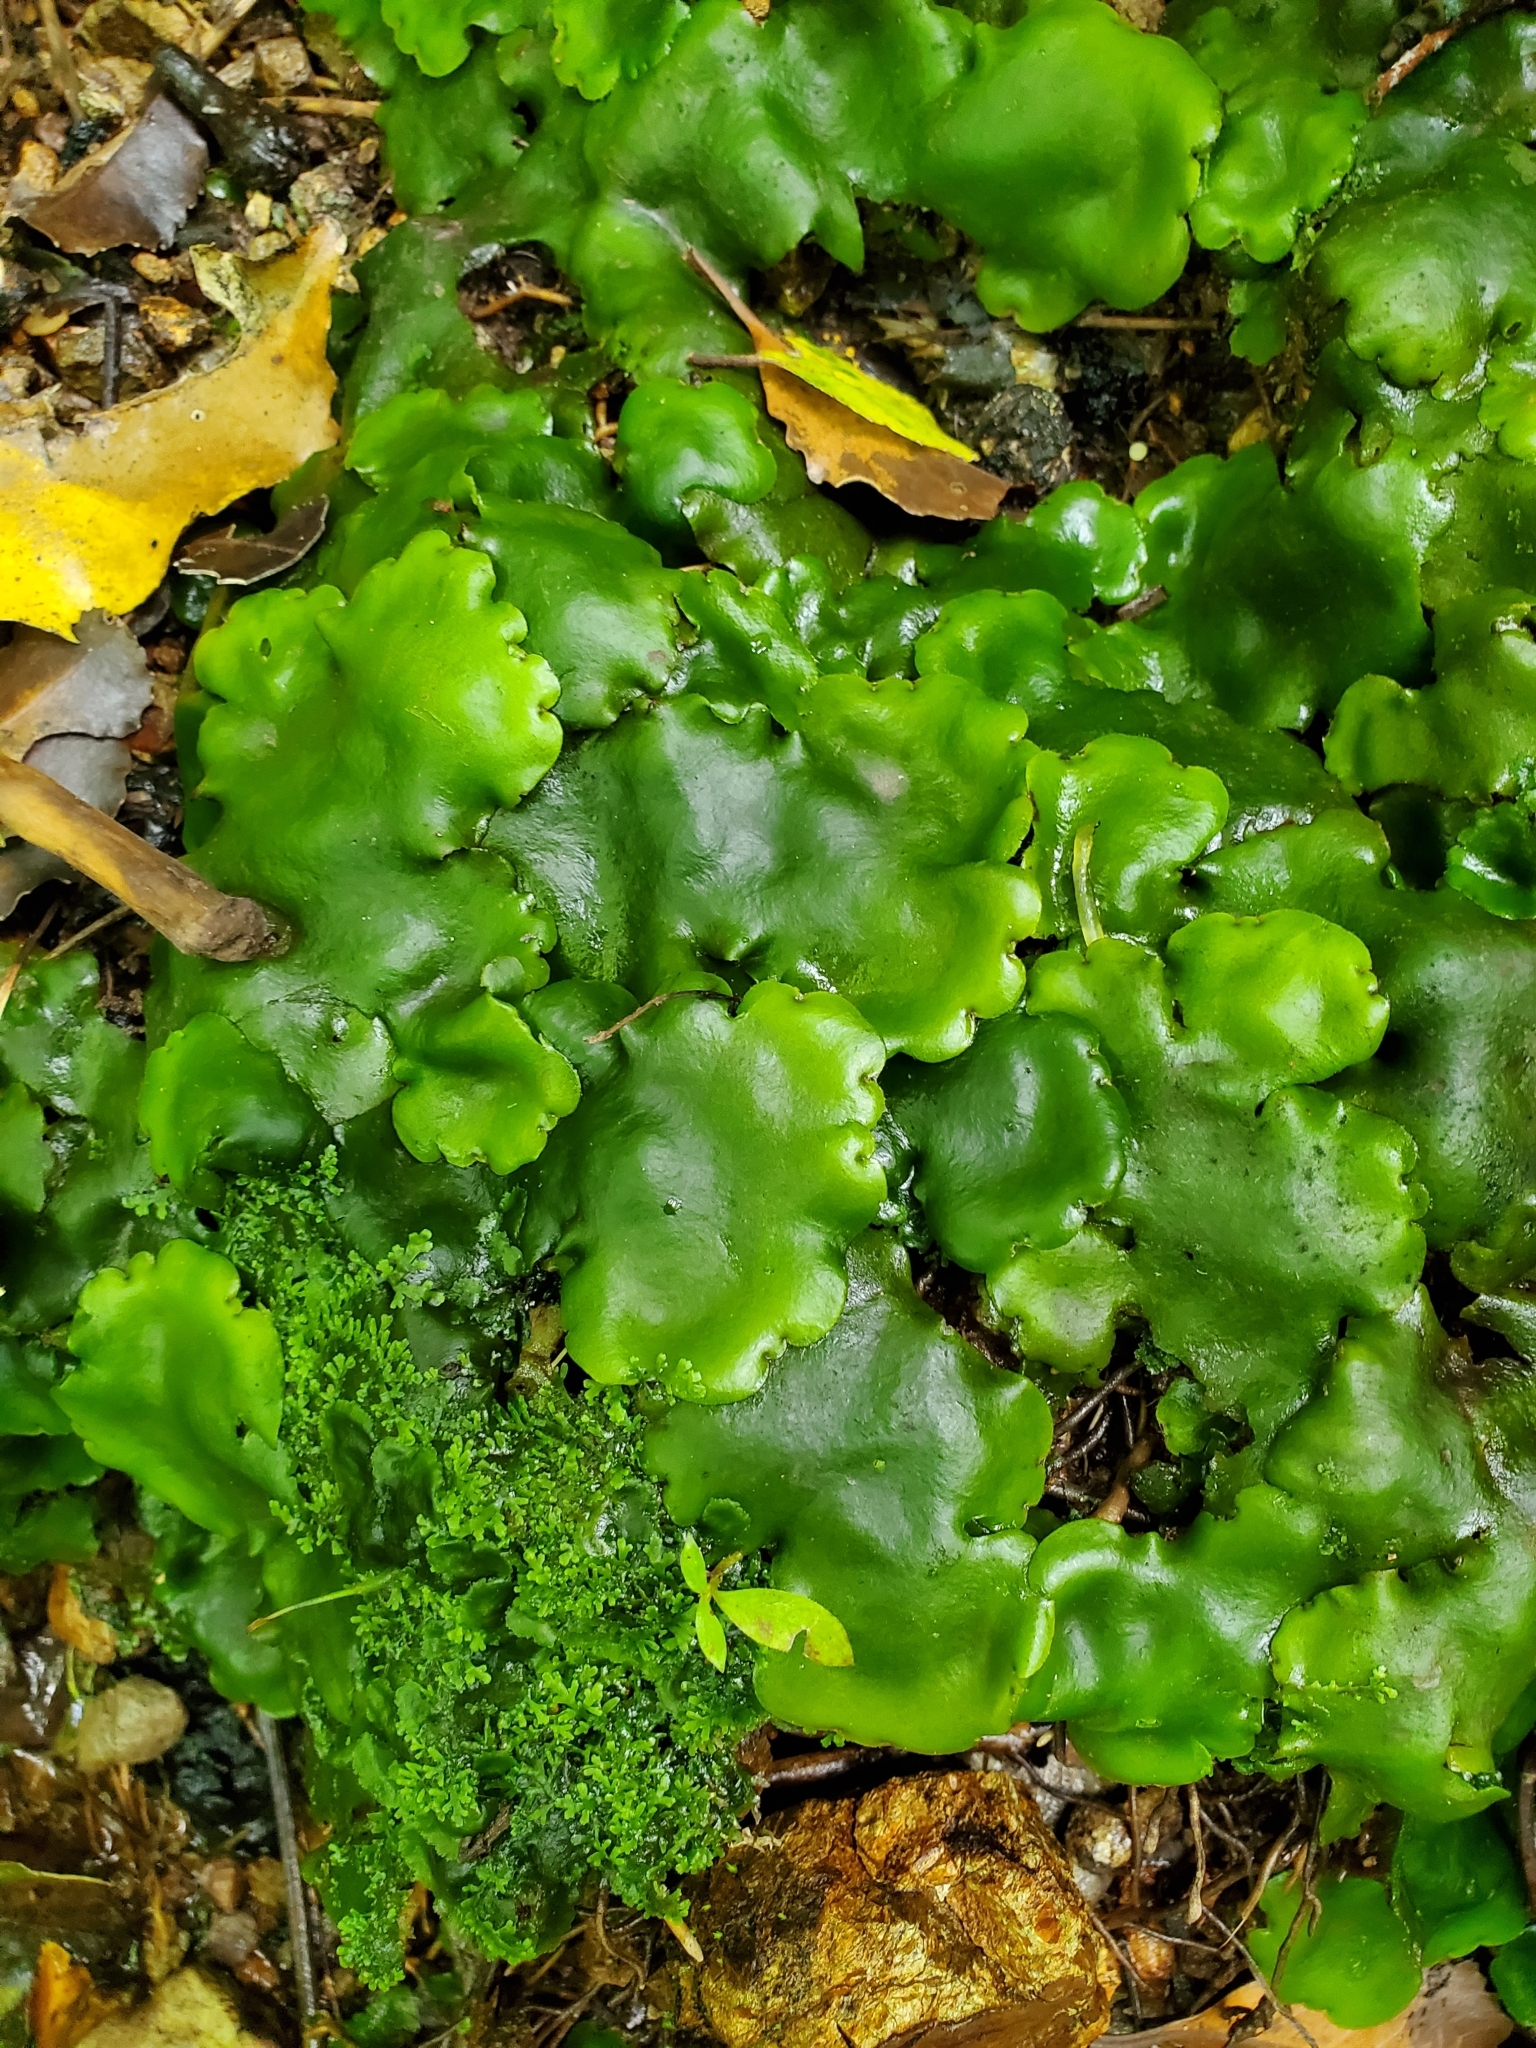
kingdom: Plantae
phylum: Marchantiophyta
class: Marchantiopsida
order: Marchantiales
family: Monocleaceae
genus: Monoclea
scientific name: Monoclea forsteri
